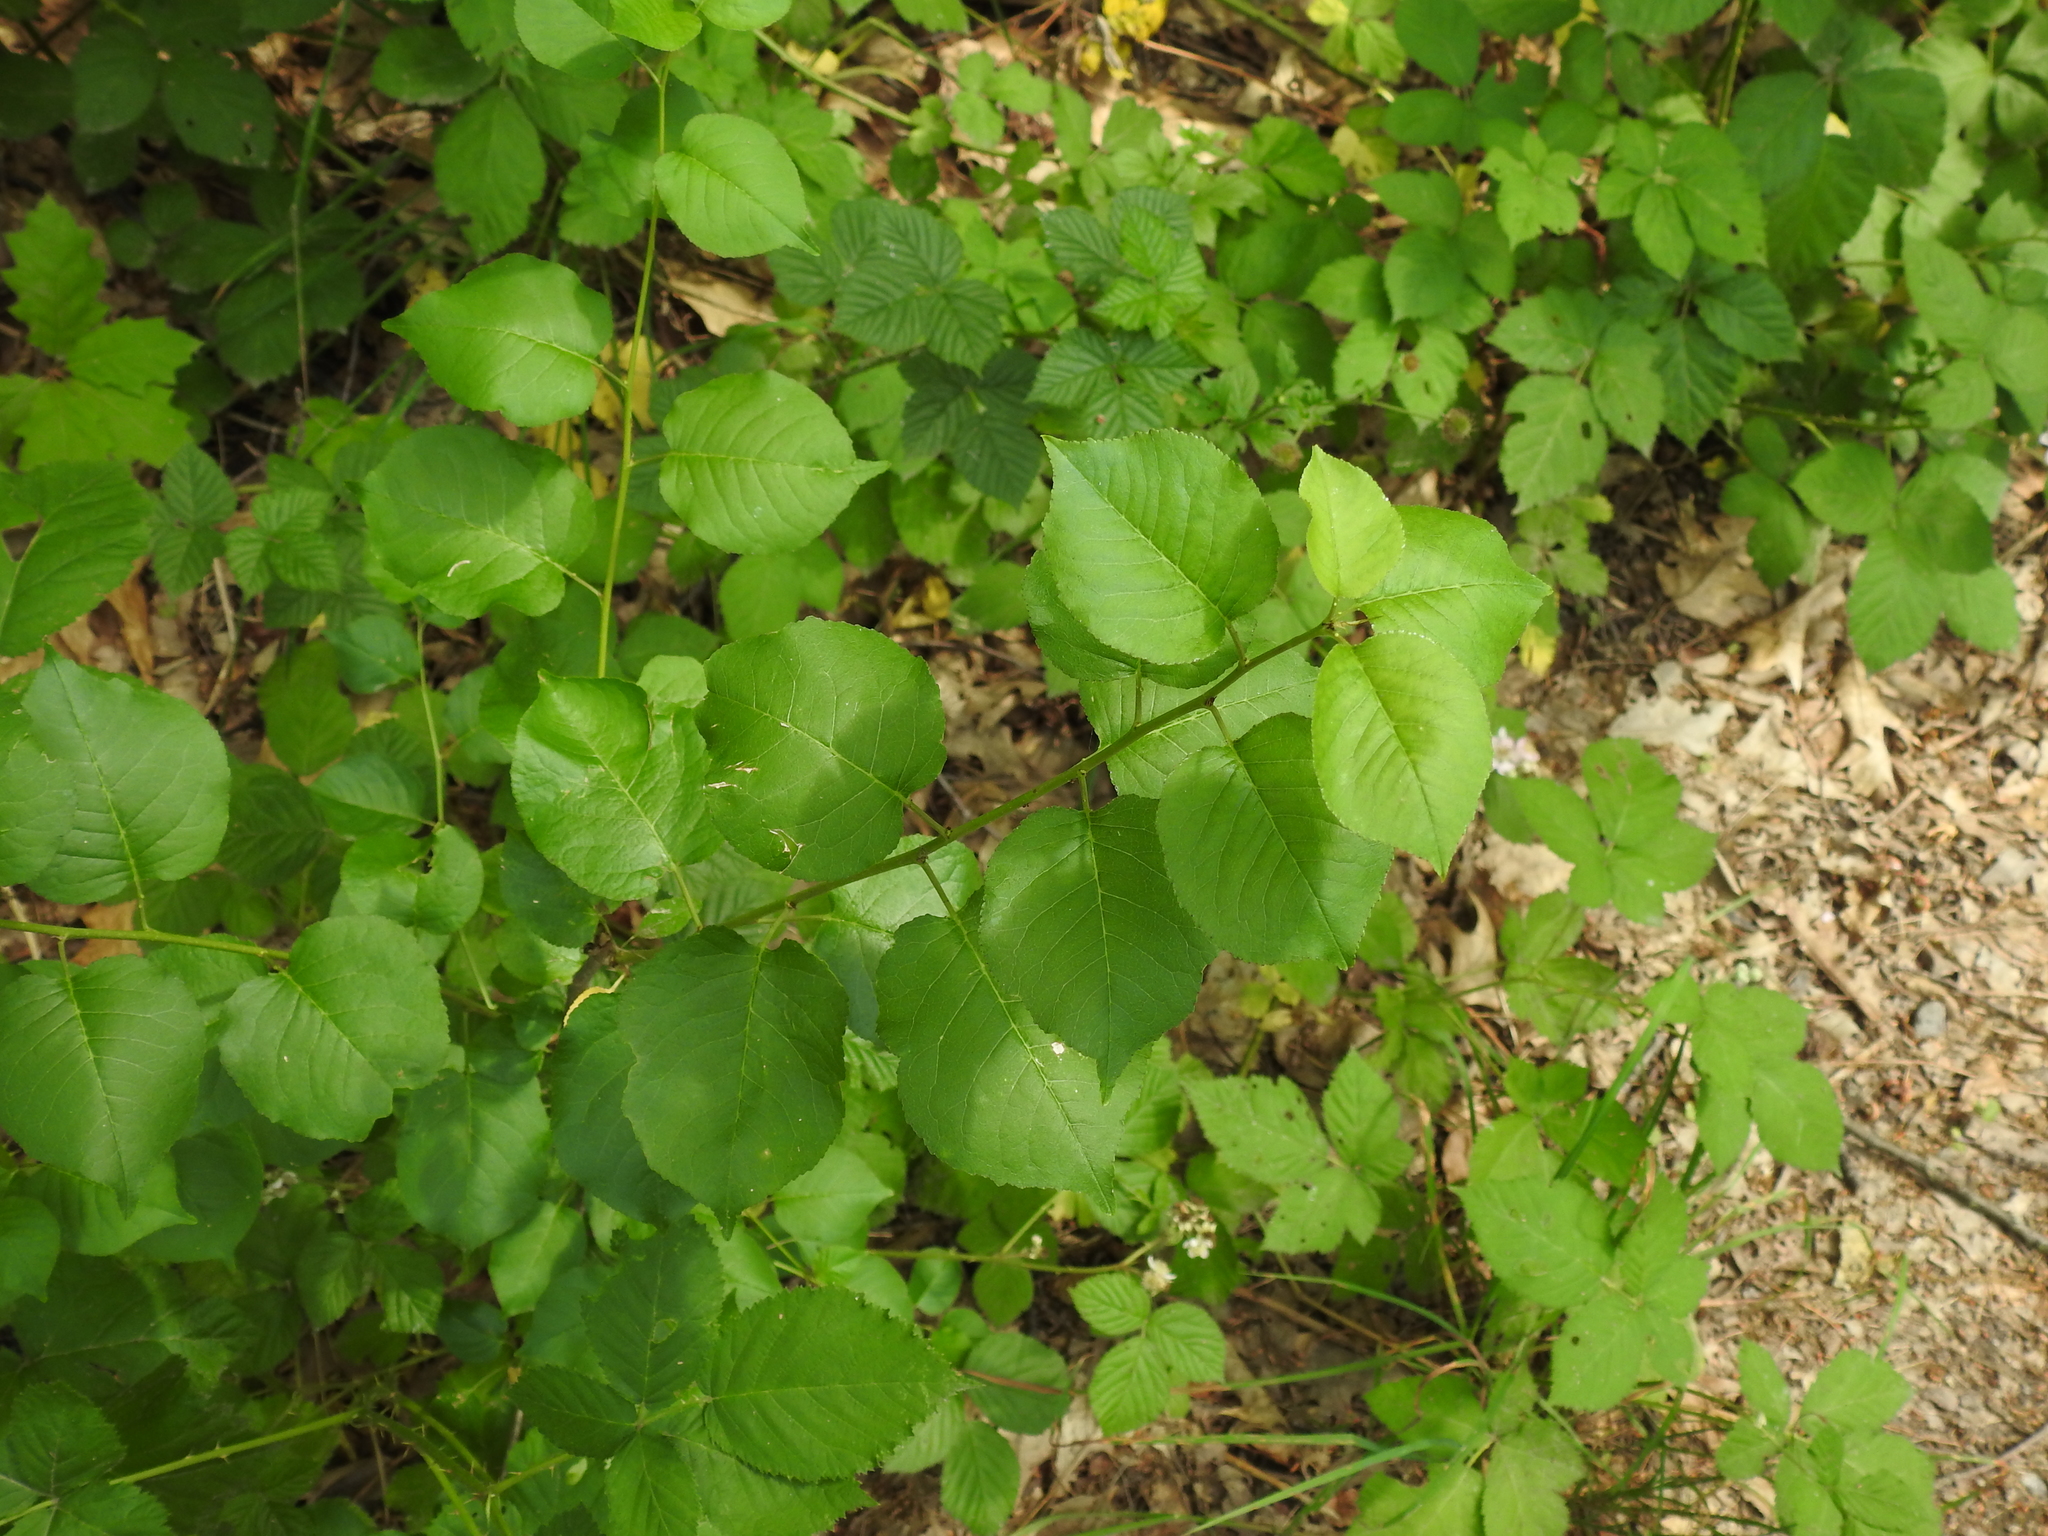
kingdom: Plantae
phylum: Tracheophyta
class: Magnoliopsida
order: Rosales
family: Rosaceae
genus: Prunus
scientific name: Prunus mahaleb
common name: Mahaleb cherry
